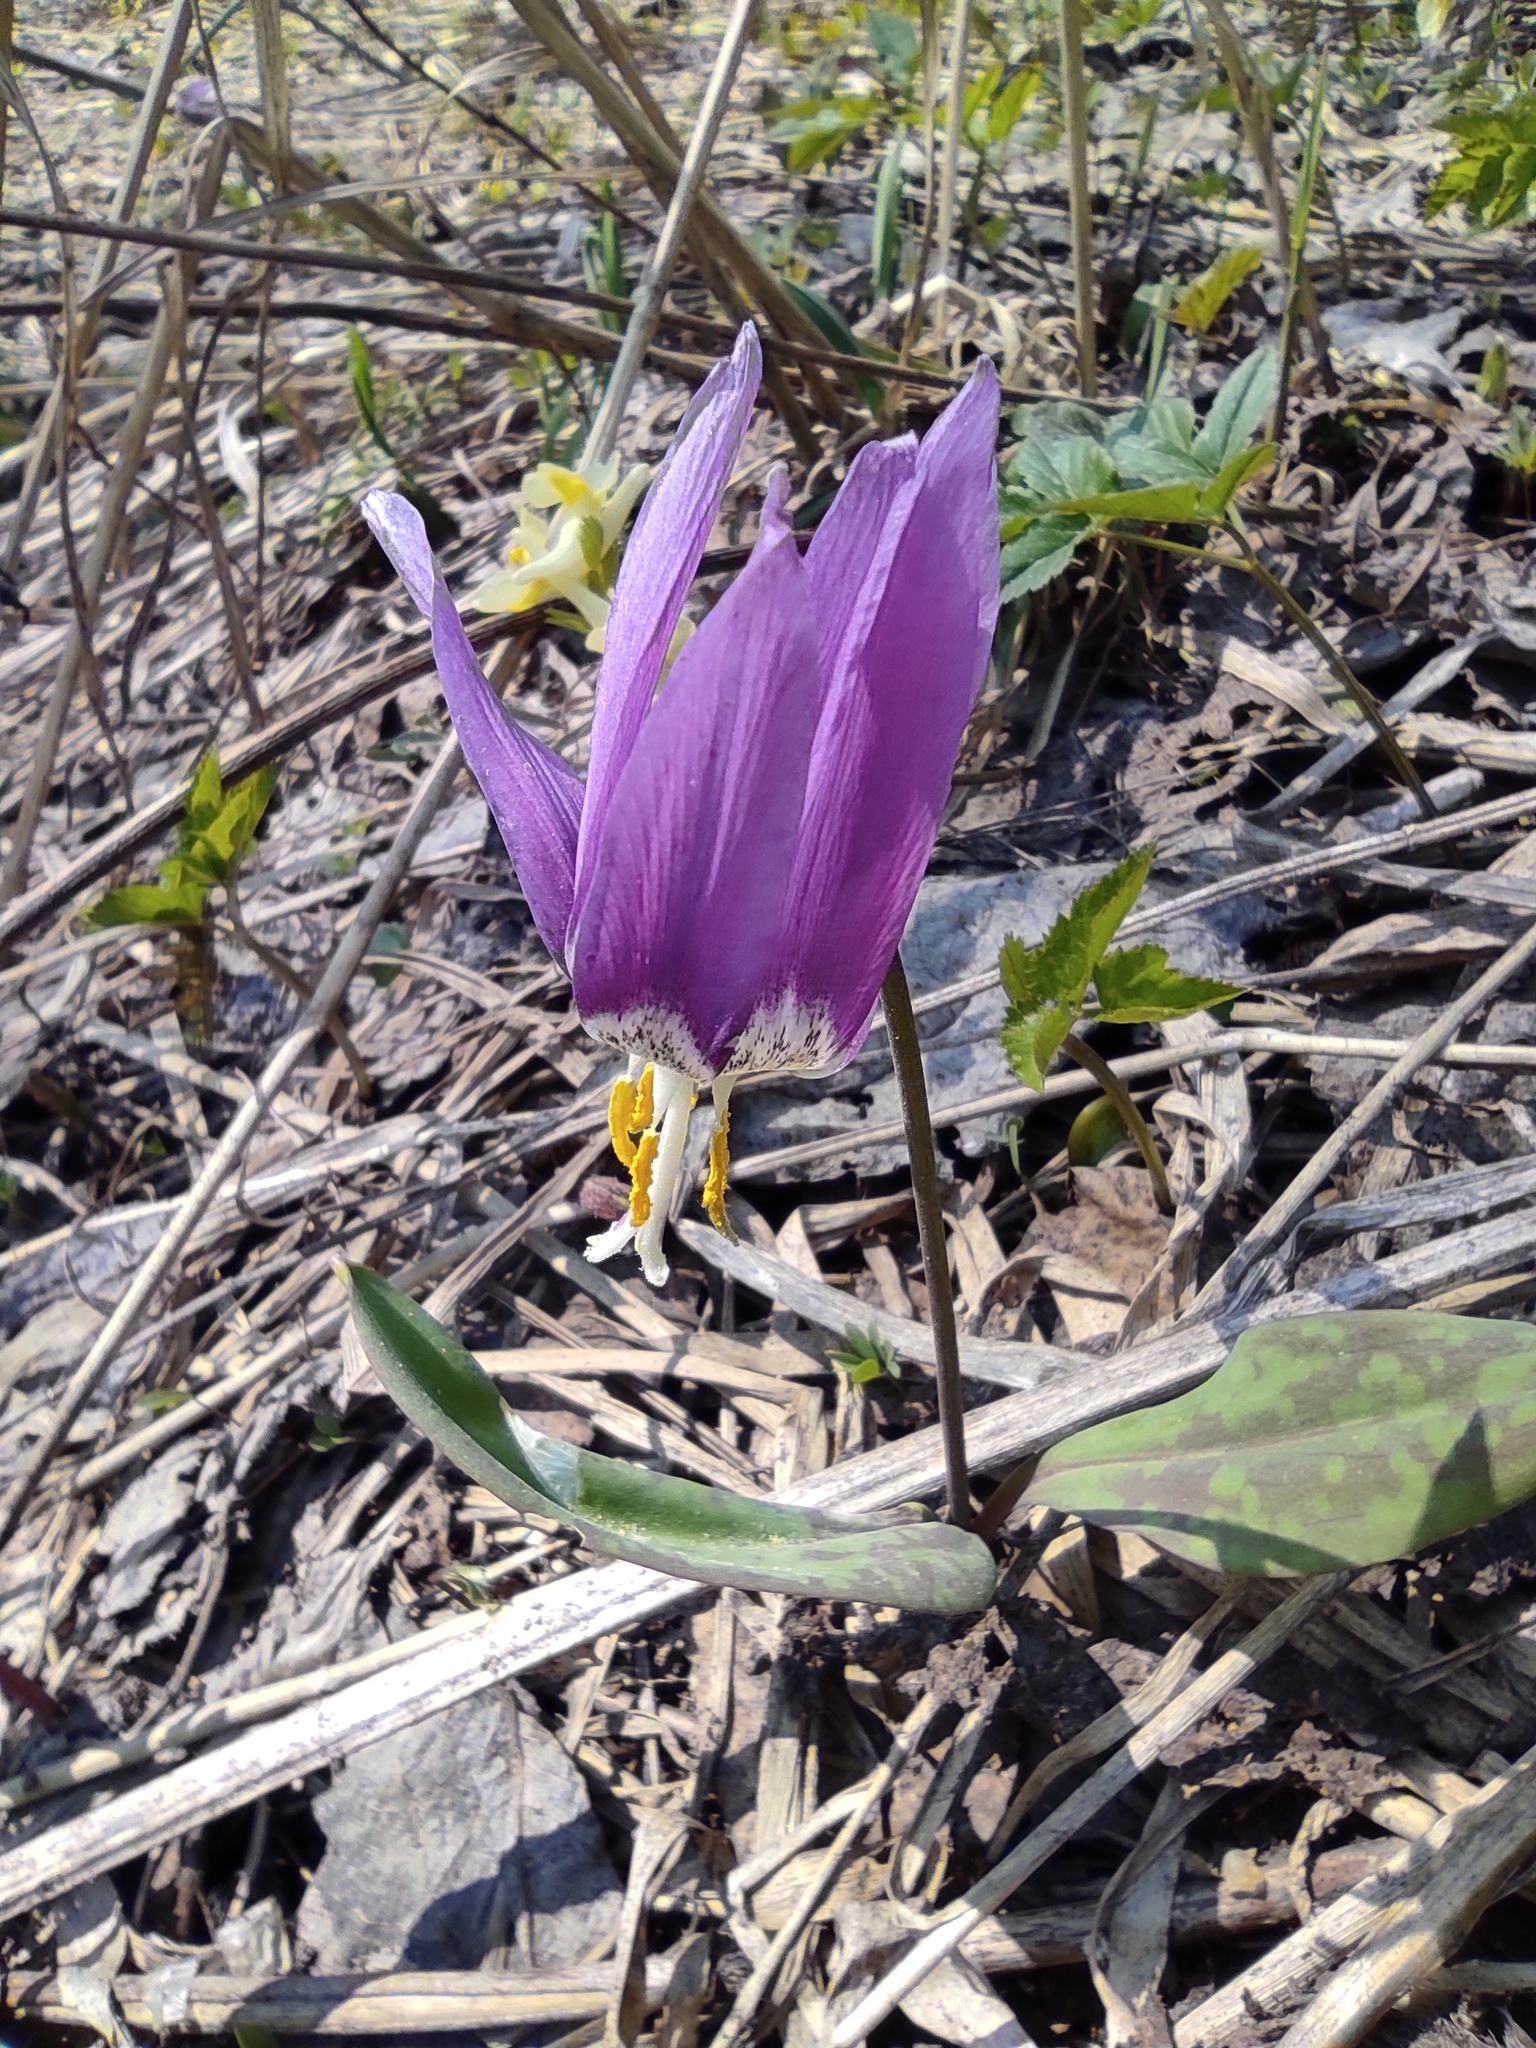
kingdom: Plantae
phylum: Tracheophyta
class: Liliopsida
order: Liliales
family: Liliaceae
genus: Erythronium
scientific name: Erythronium sibiricum
